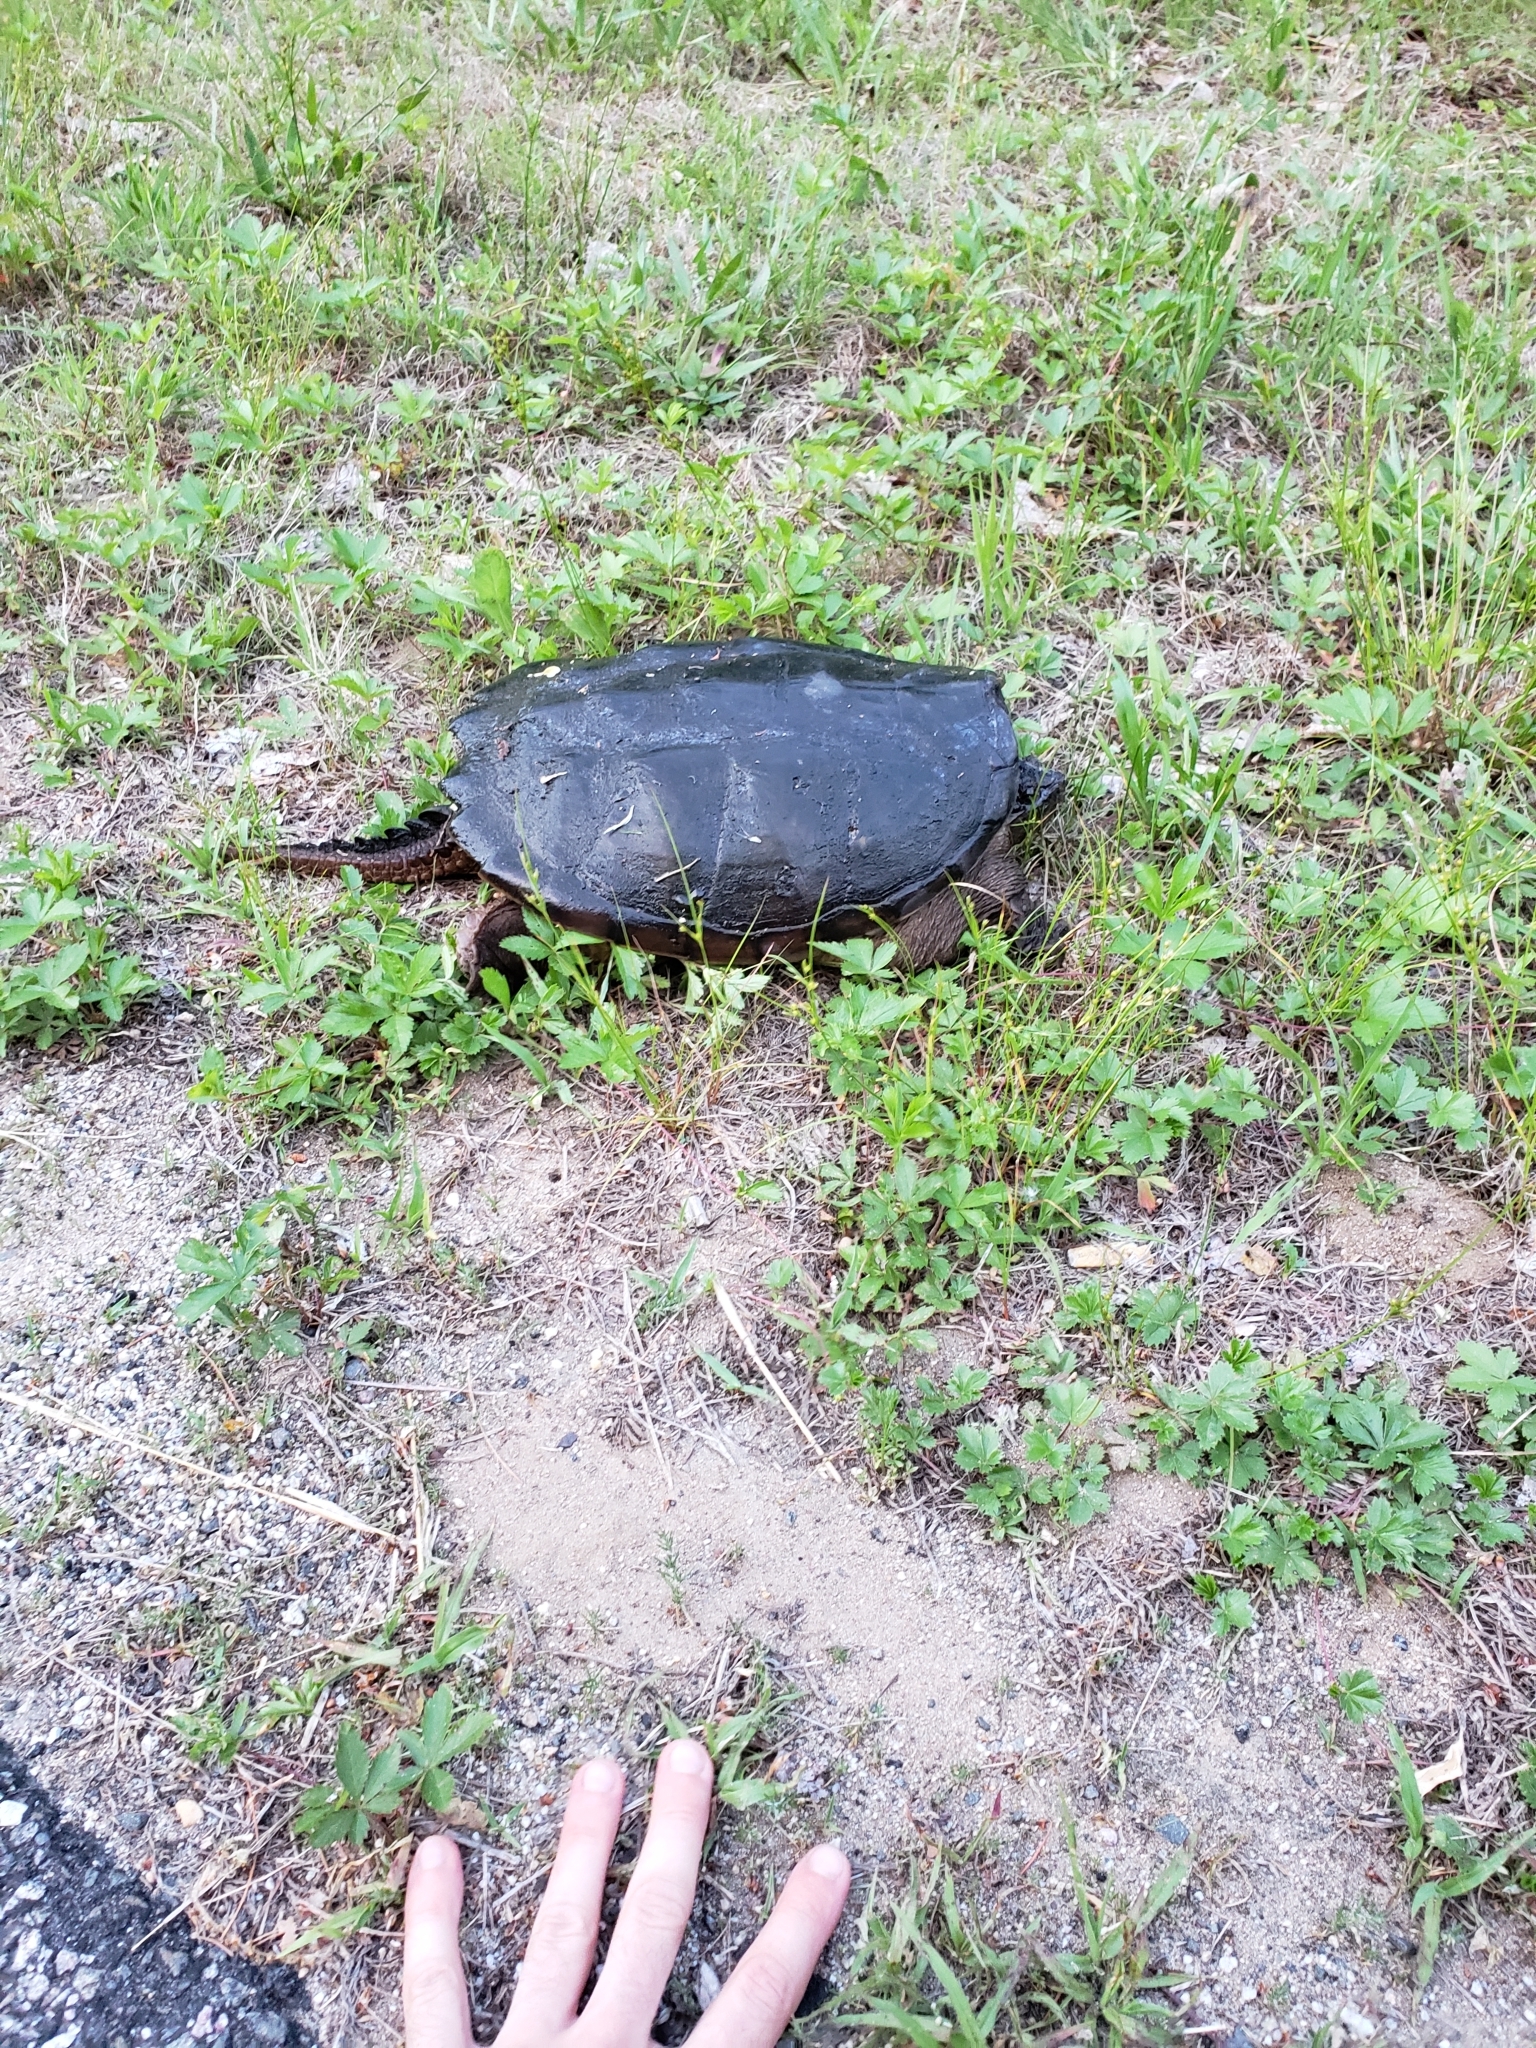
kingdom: Animalia
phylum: Chordata
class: Testudines
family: Chelydridae
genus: Chelydra
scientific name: Chelydra serpentina
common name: Common snapping turtle
